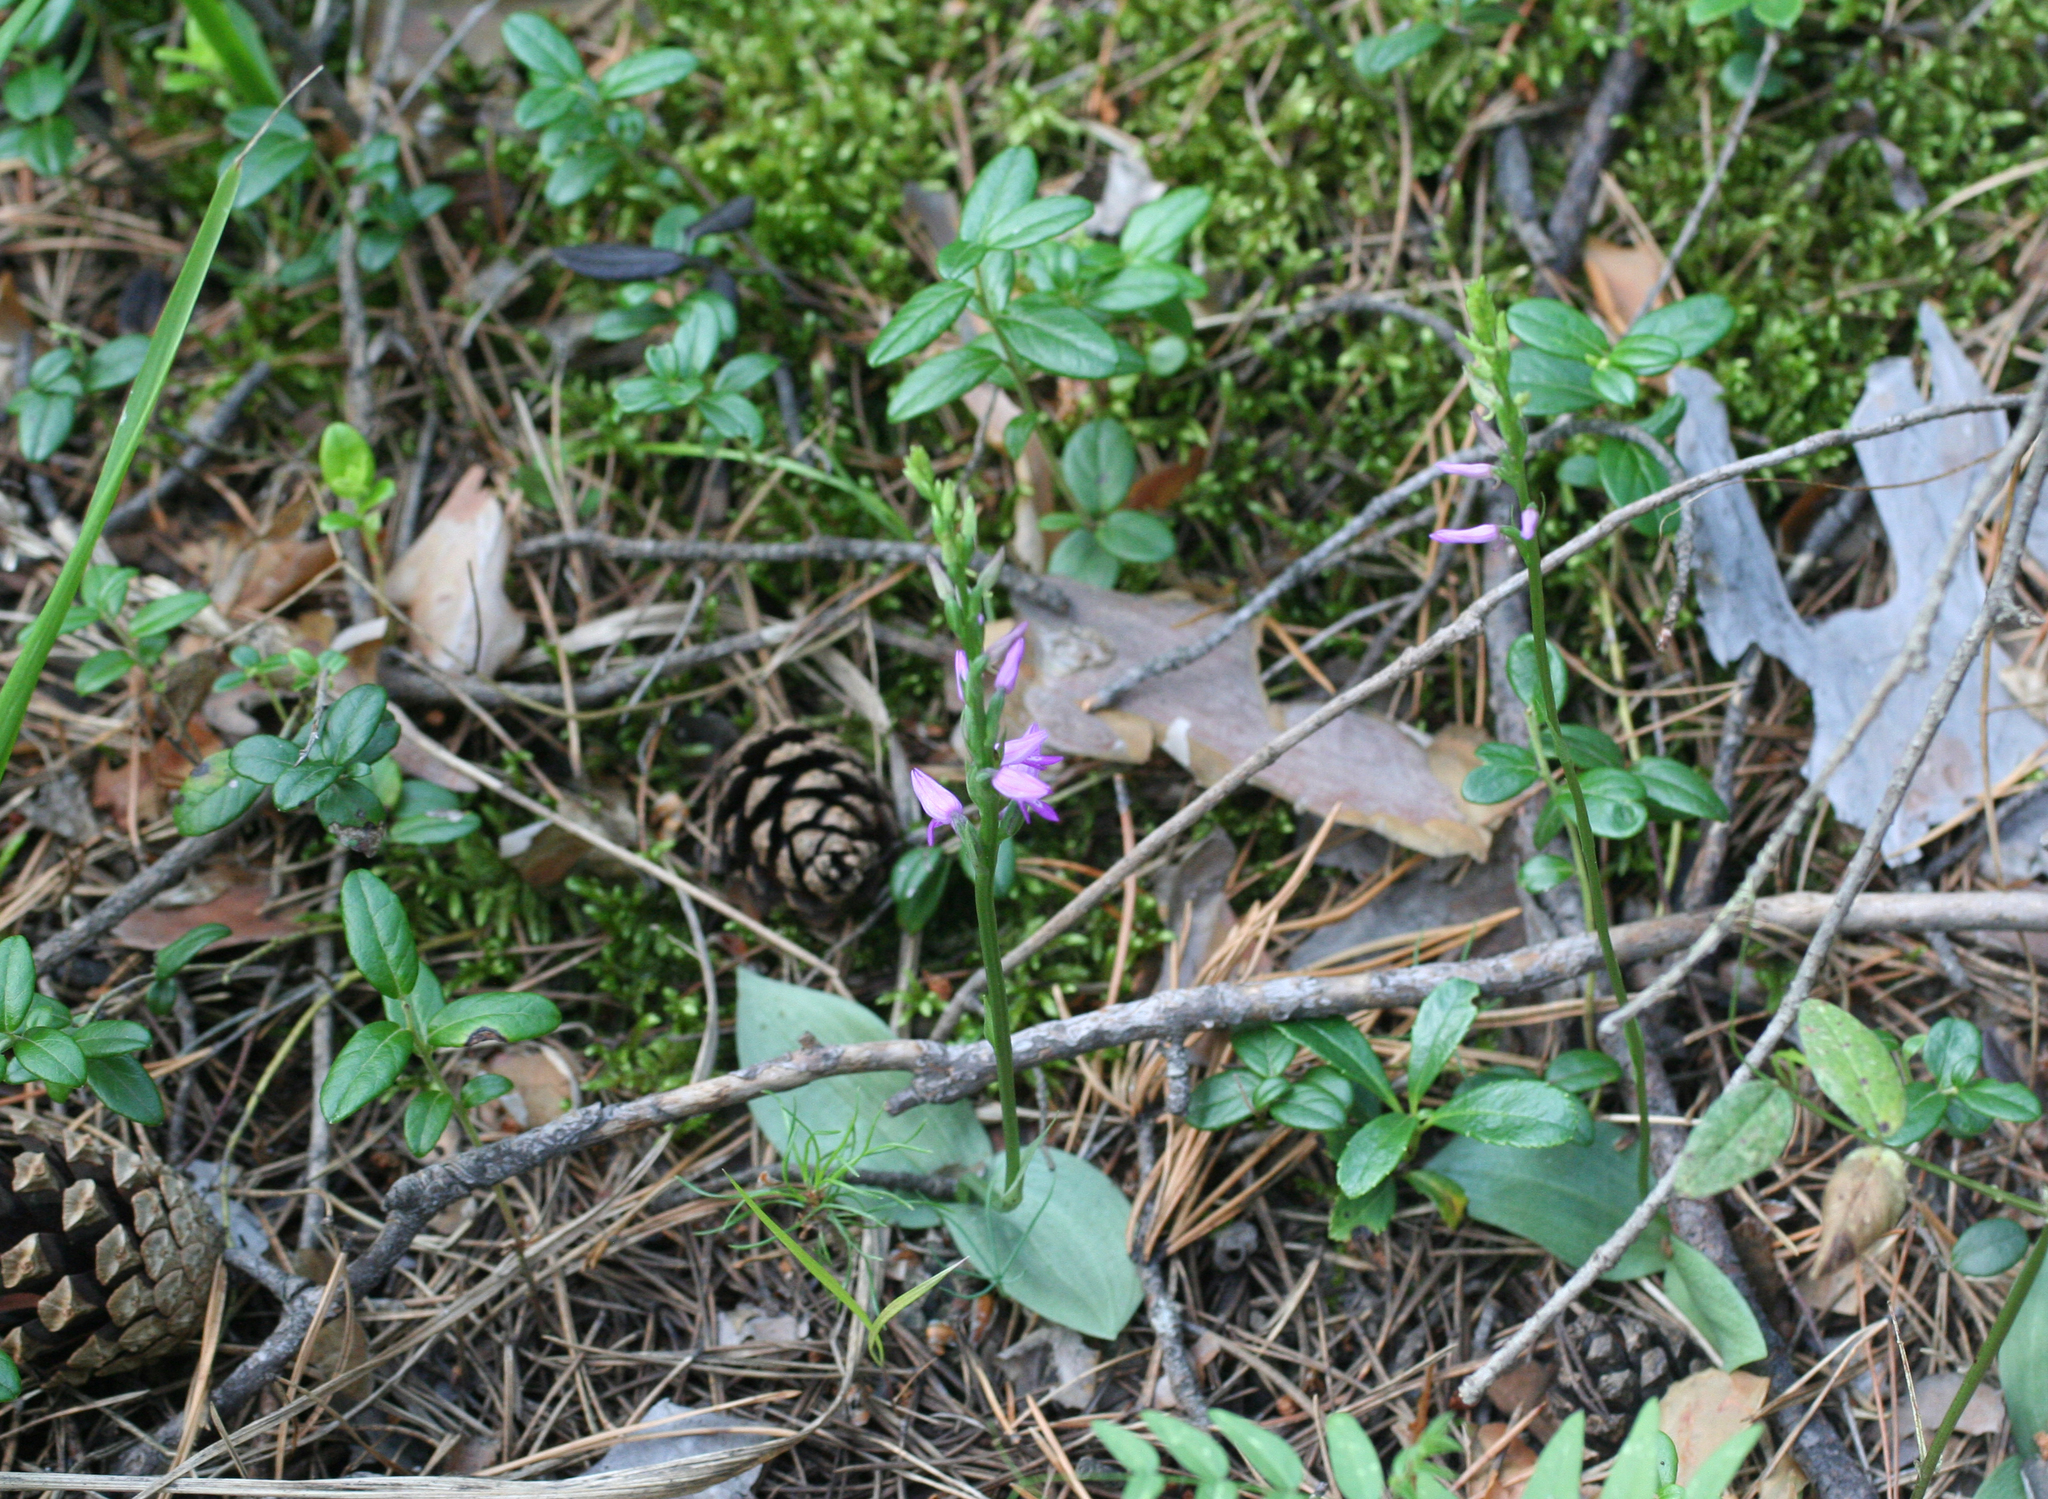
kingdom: Plantae
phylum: Tracheophyta
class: Liliopsida
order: Asparagales
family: Orchidaceae
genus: Hemipilia
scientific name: Hemipilia cucullata
